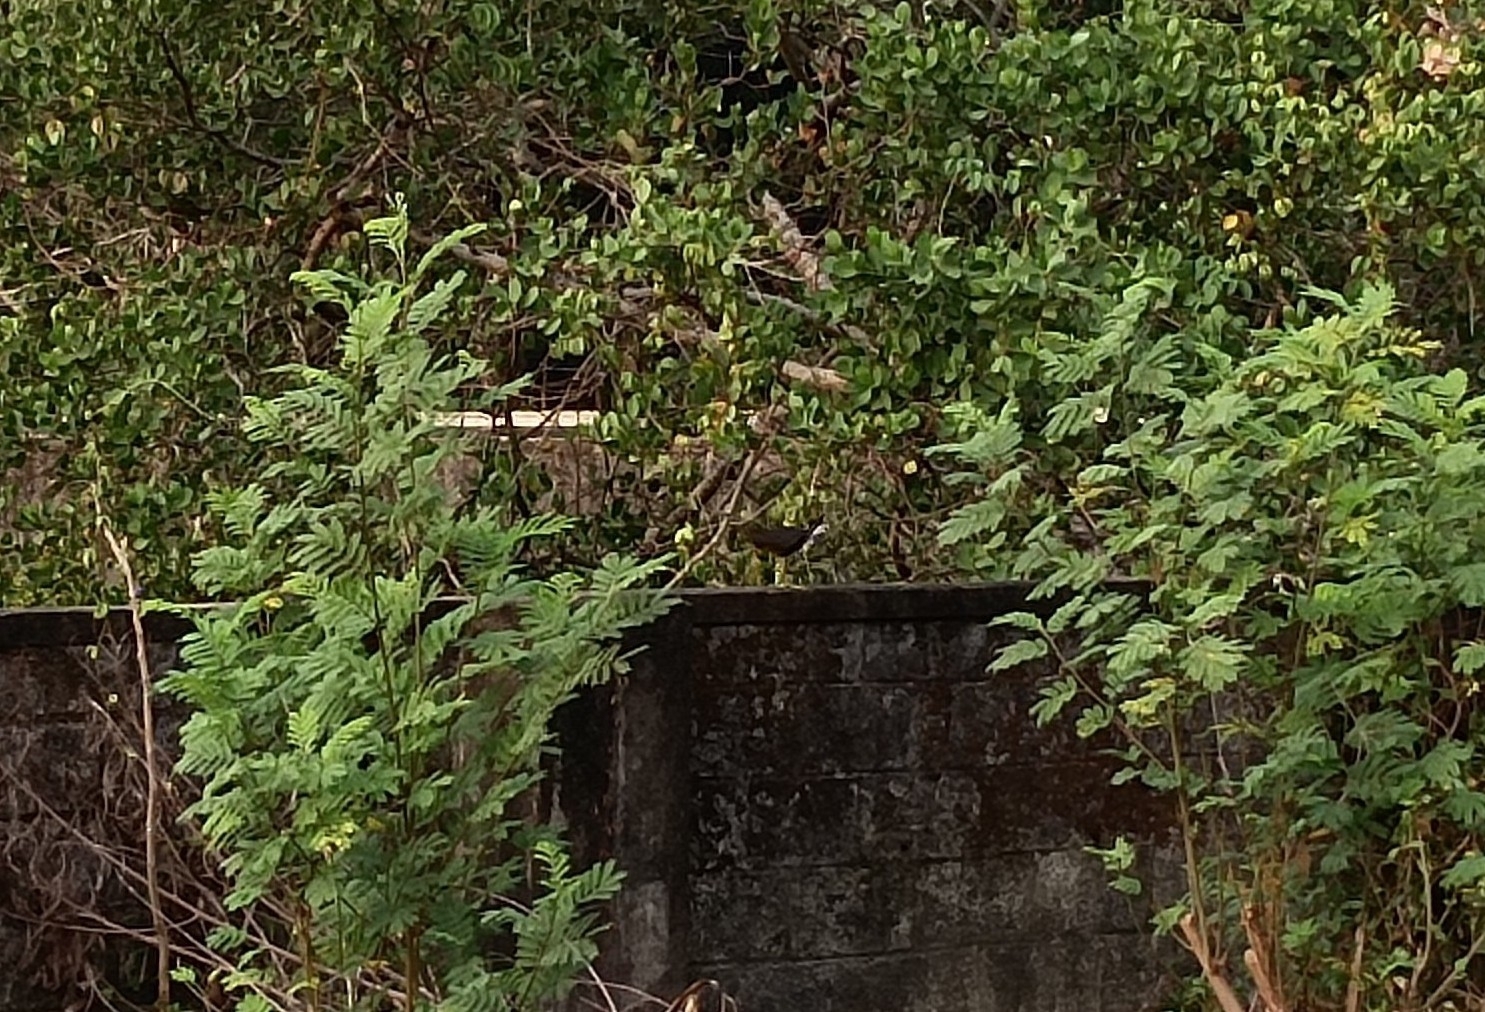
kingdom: Animalia
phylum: Chordata
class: Aves
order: Gruiformes
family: Rallidae
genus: Amaurornis
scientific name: Amaurornis phoenicurus
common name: White-breasted waterhen
